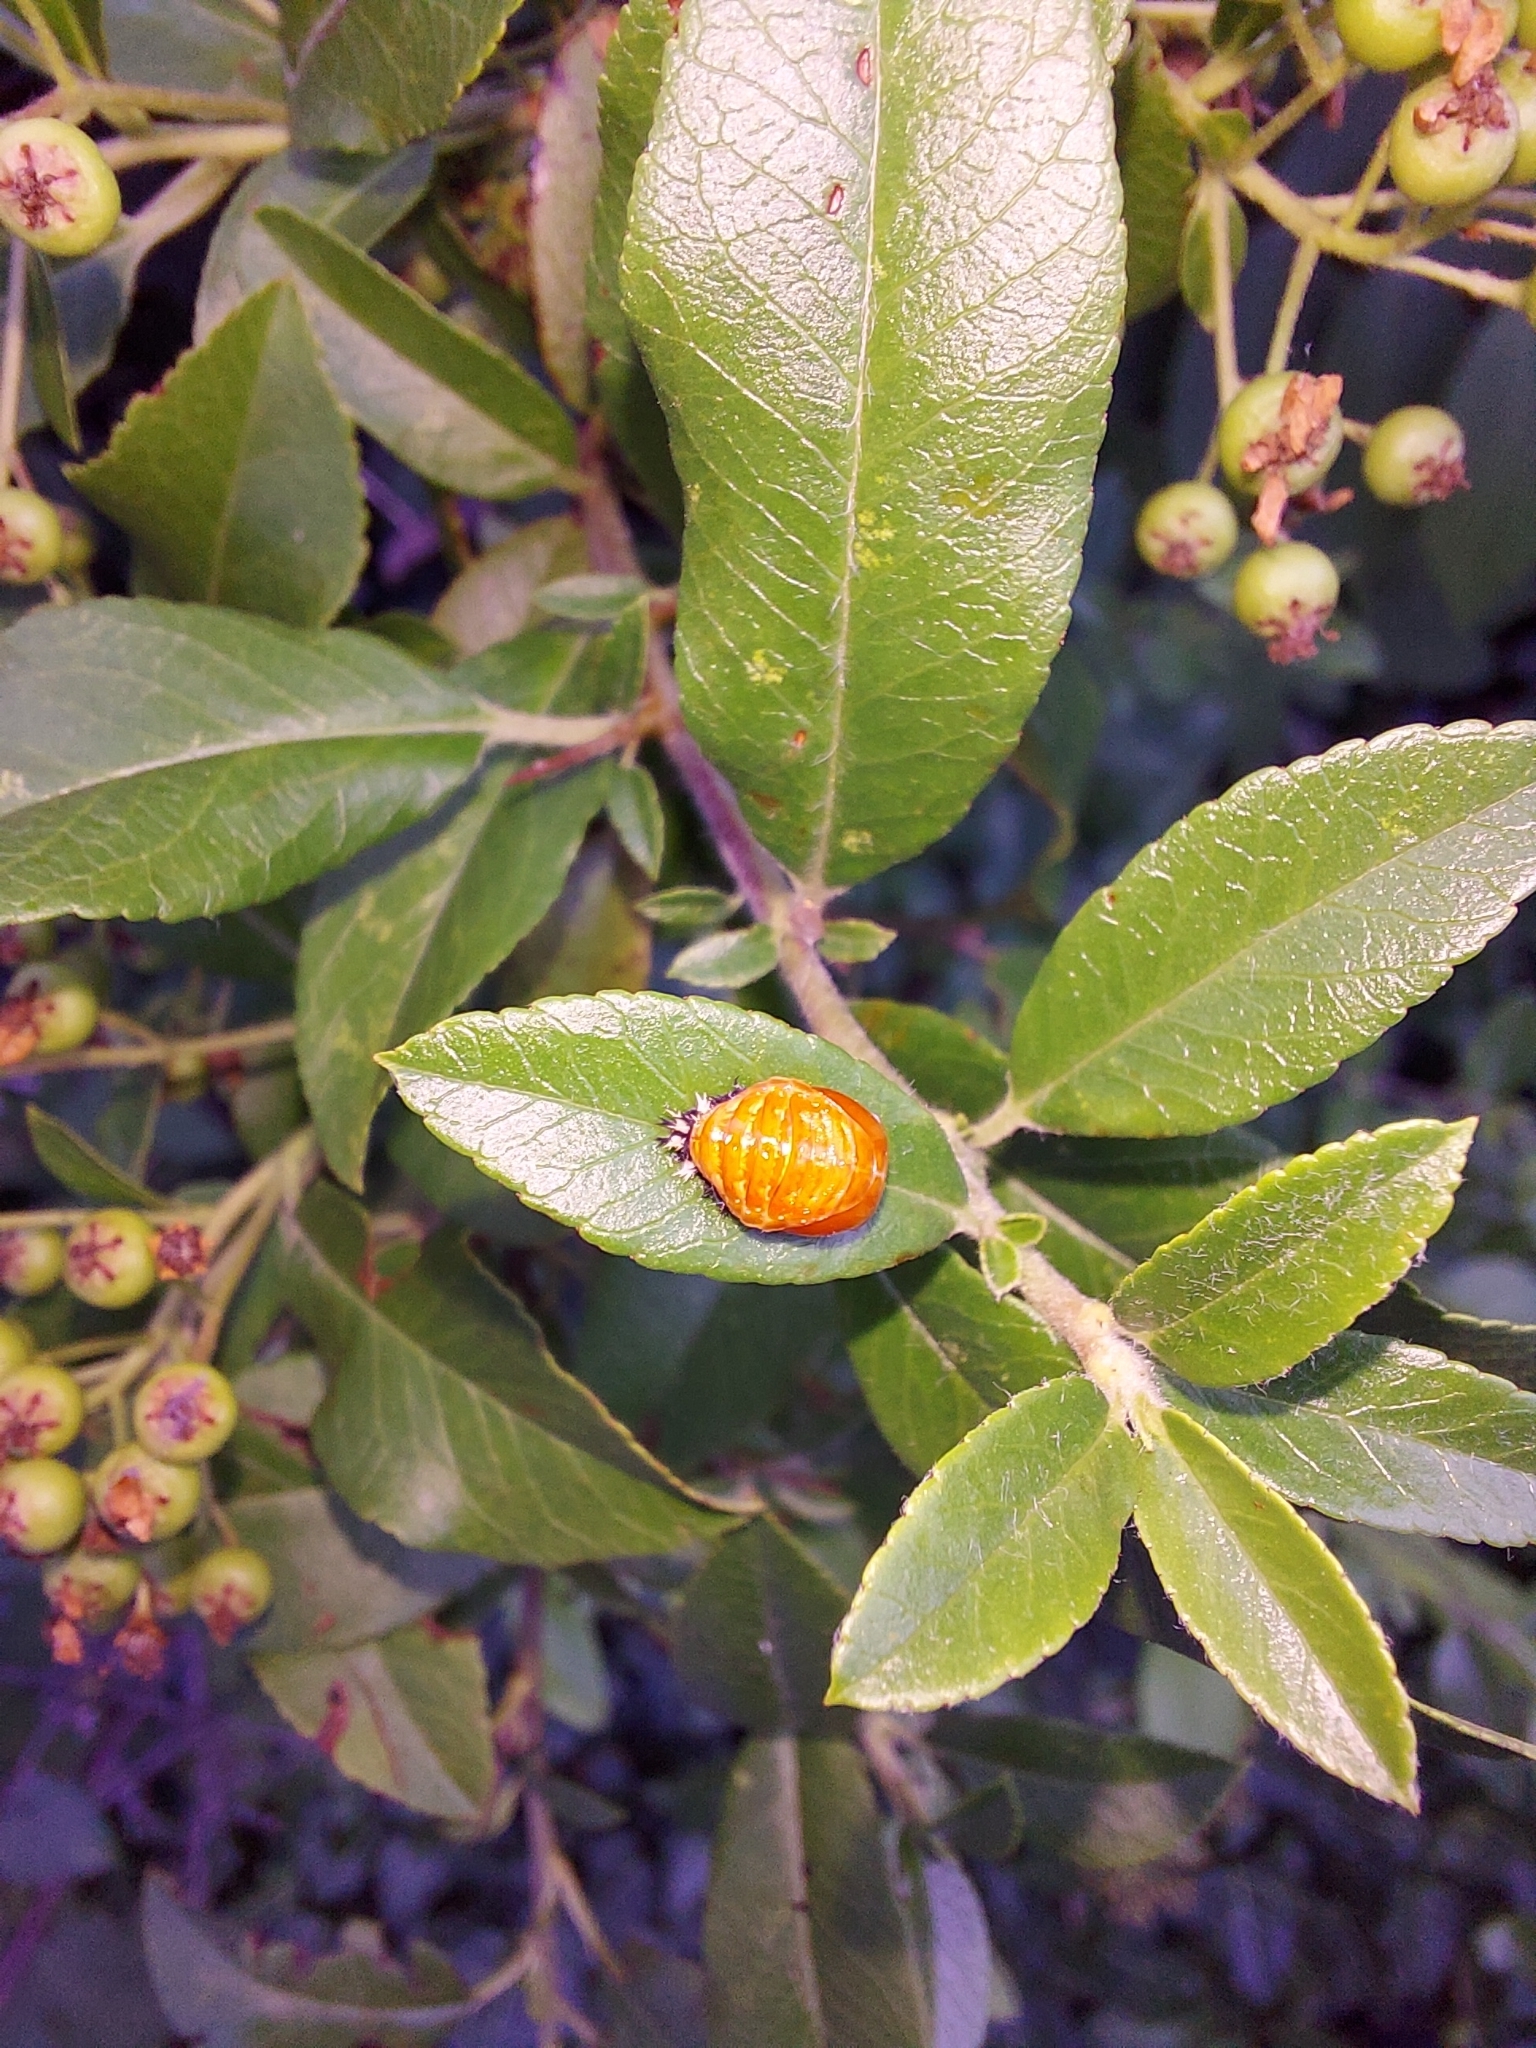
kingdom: Animalia
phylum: Arthropoda
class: Insecta
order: Coleoptera
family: Coccinellidae
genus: Harmonia
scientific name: Harmonia axyridis
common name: Harlequin ladybird
